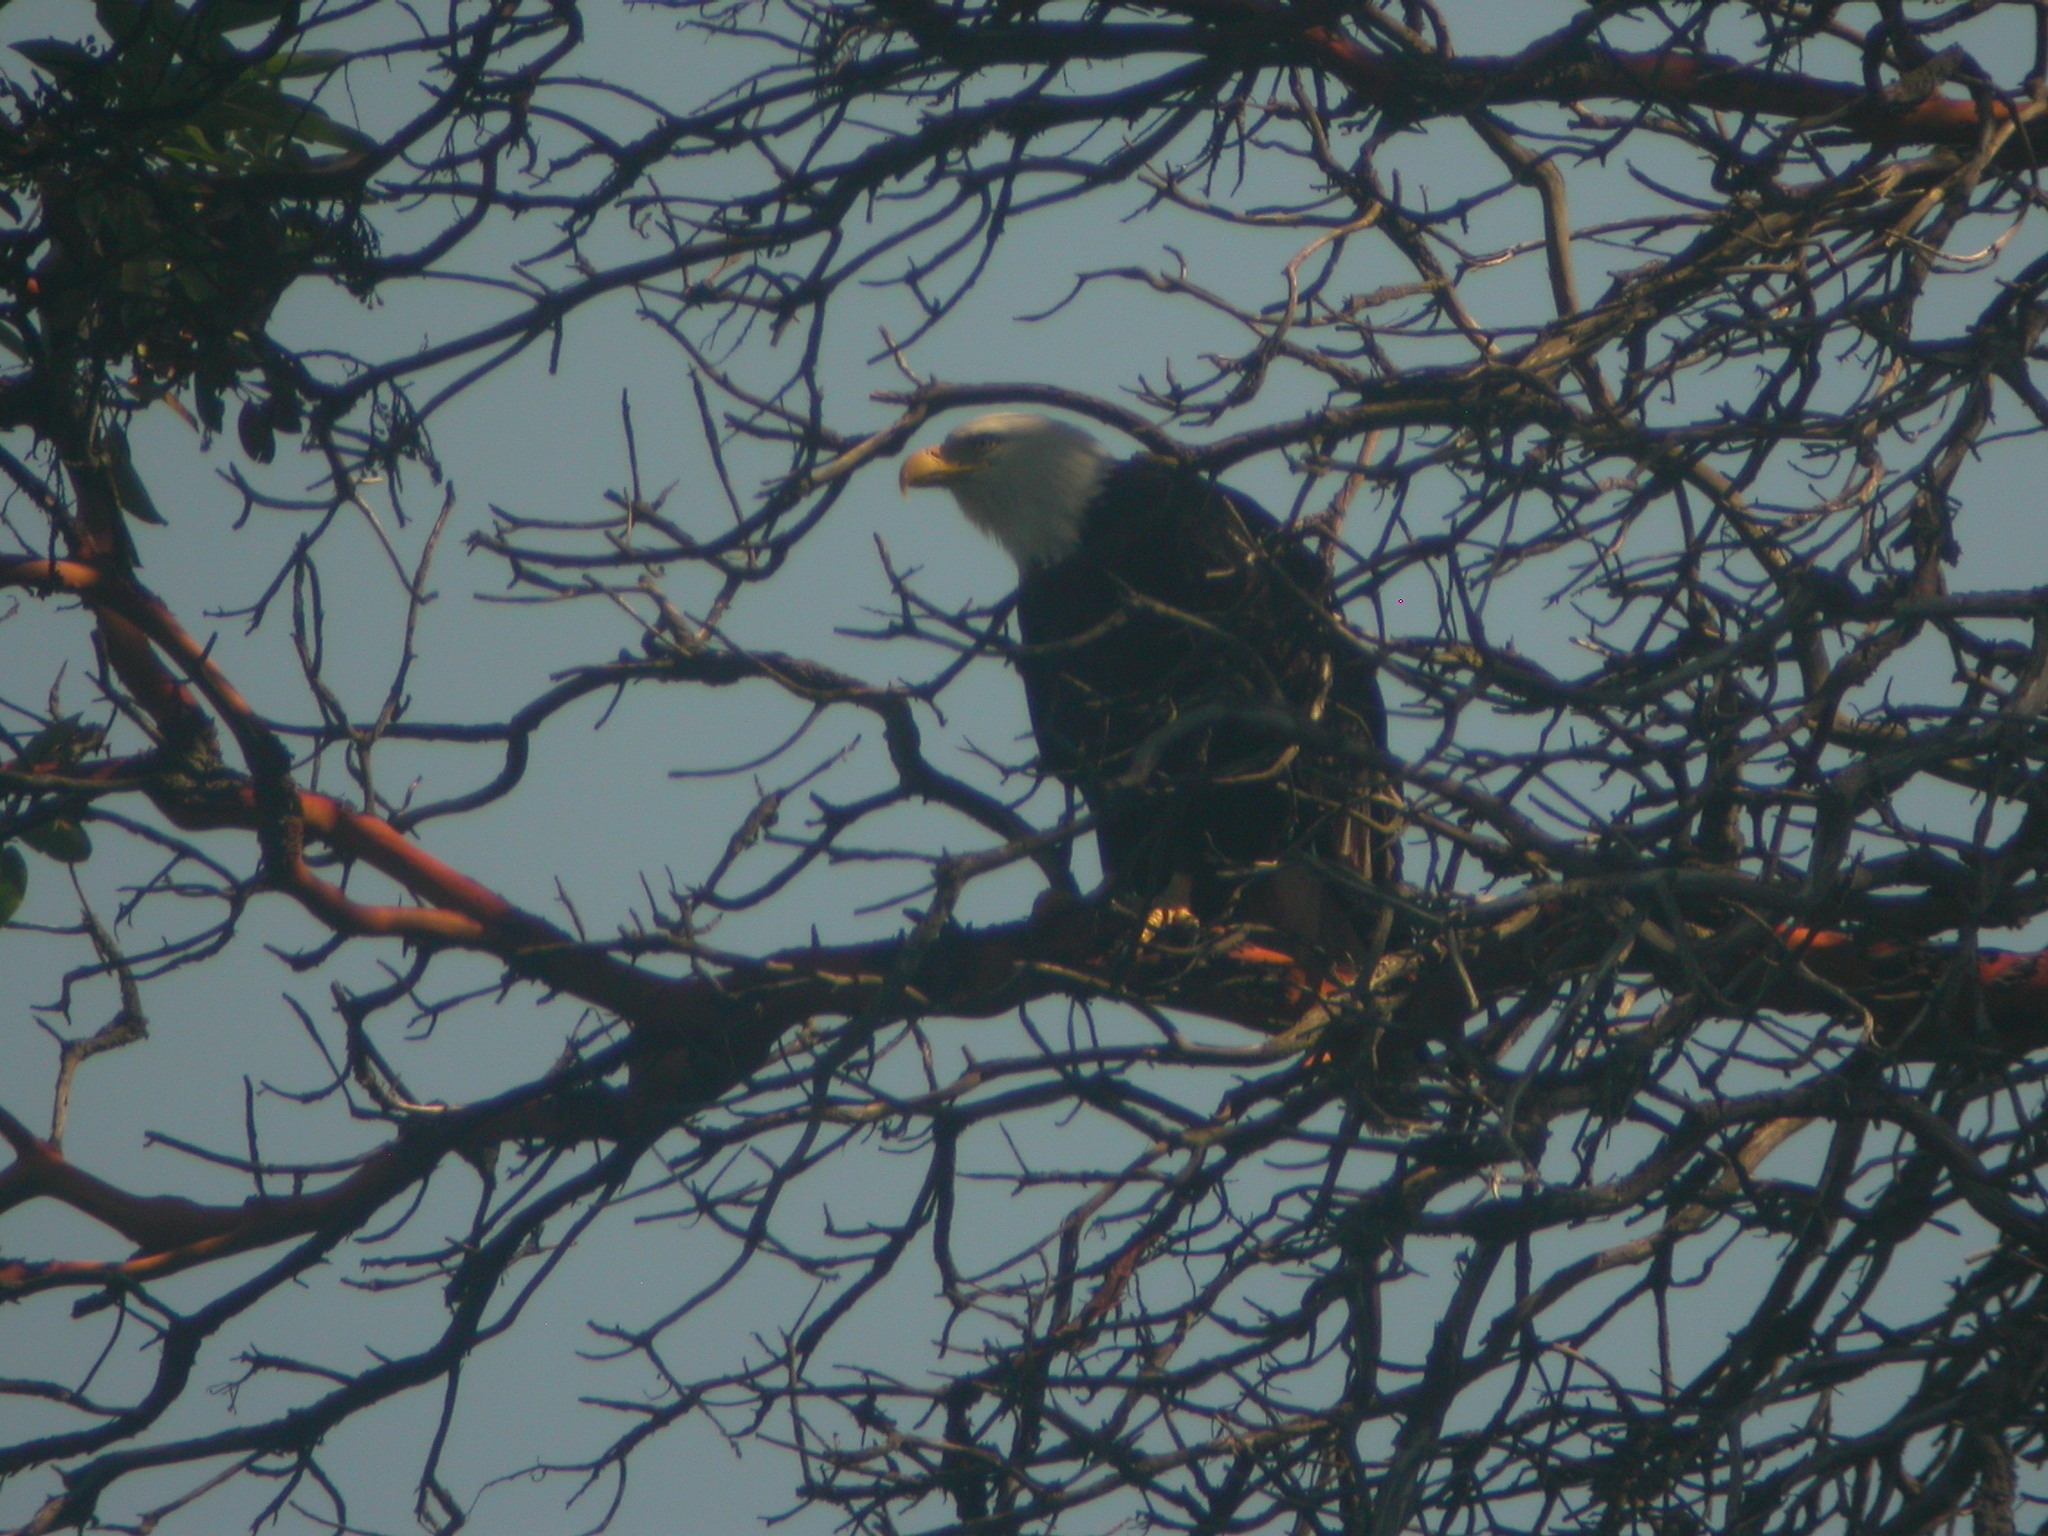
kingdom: Animalia
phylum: Chordata
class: Aves
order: Accipitriformes
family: Accipitridae
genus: Haliaeetus
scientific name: Haliaeetus leucocephalus
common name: Bald eagle
